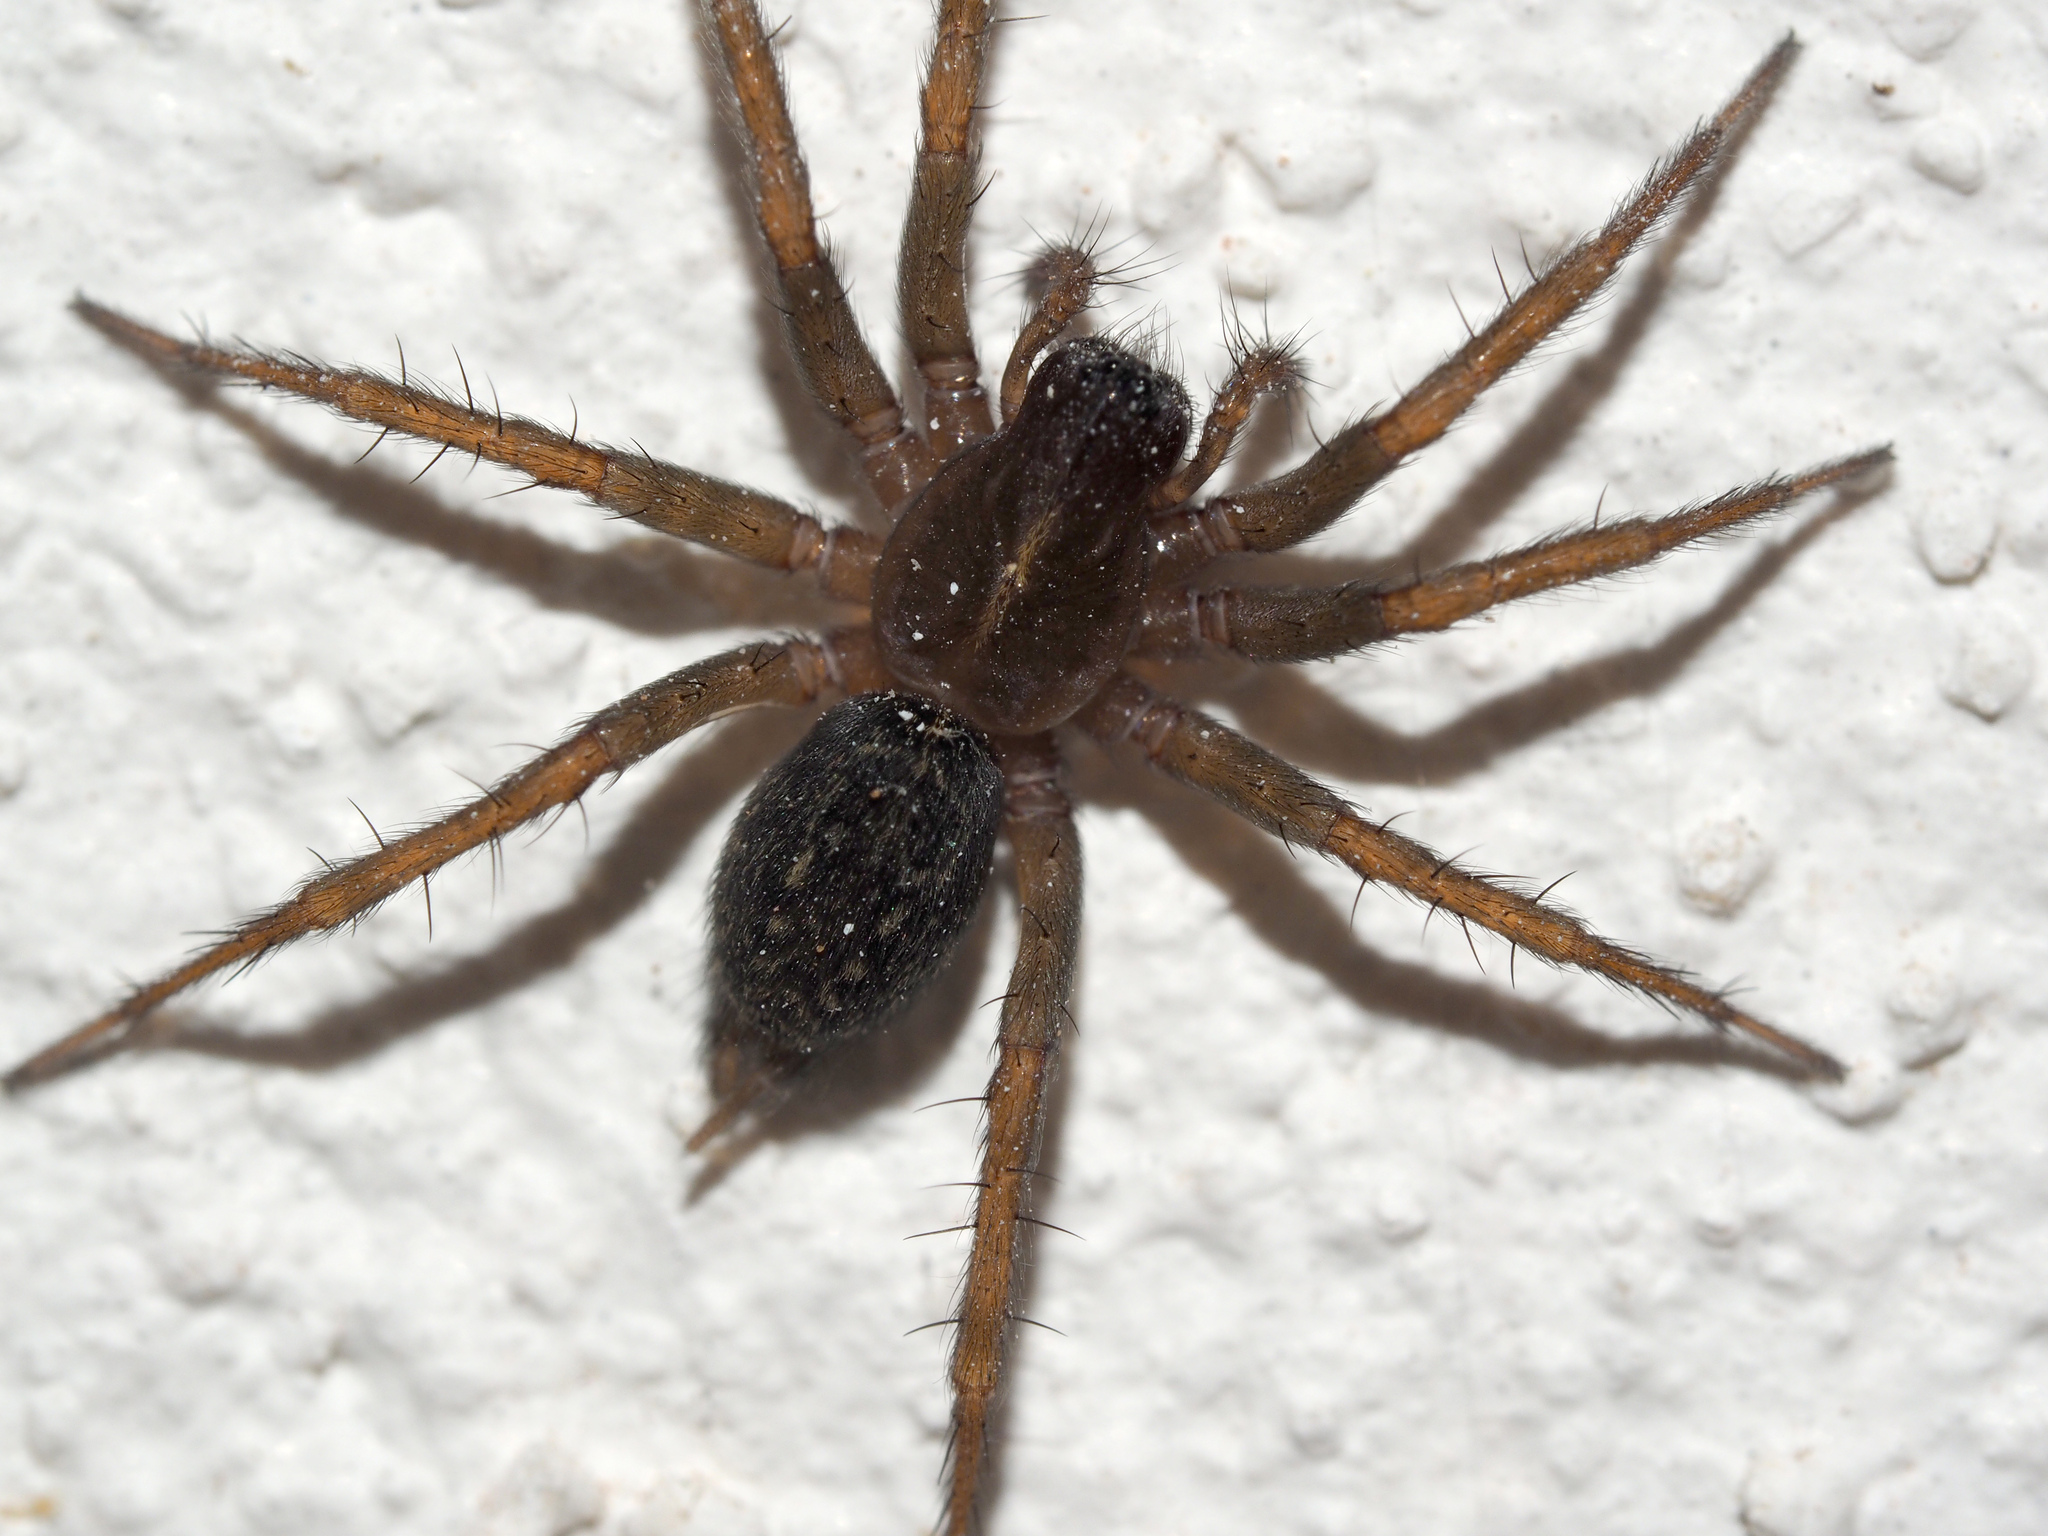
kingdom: Animalia
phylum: Arthropoda
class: Arachnida
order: Araneae
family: Agelenidae
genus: Lycosoides
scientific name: Lycosoides coarctata
